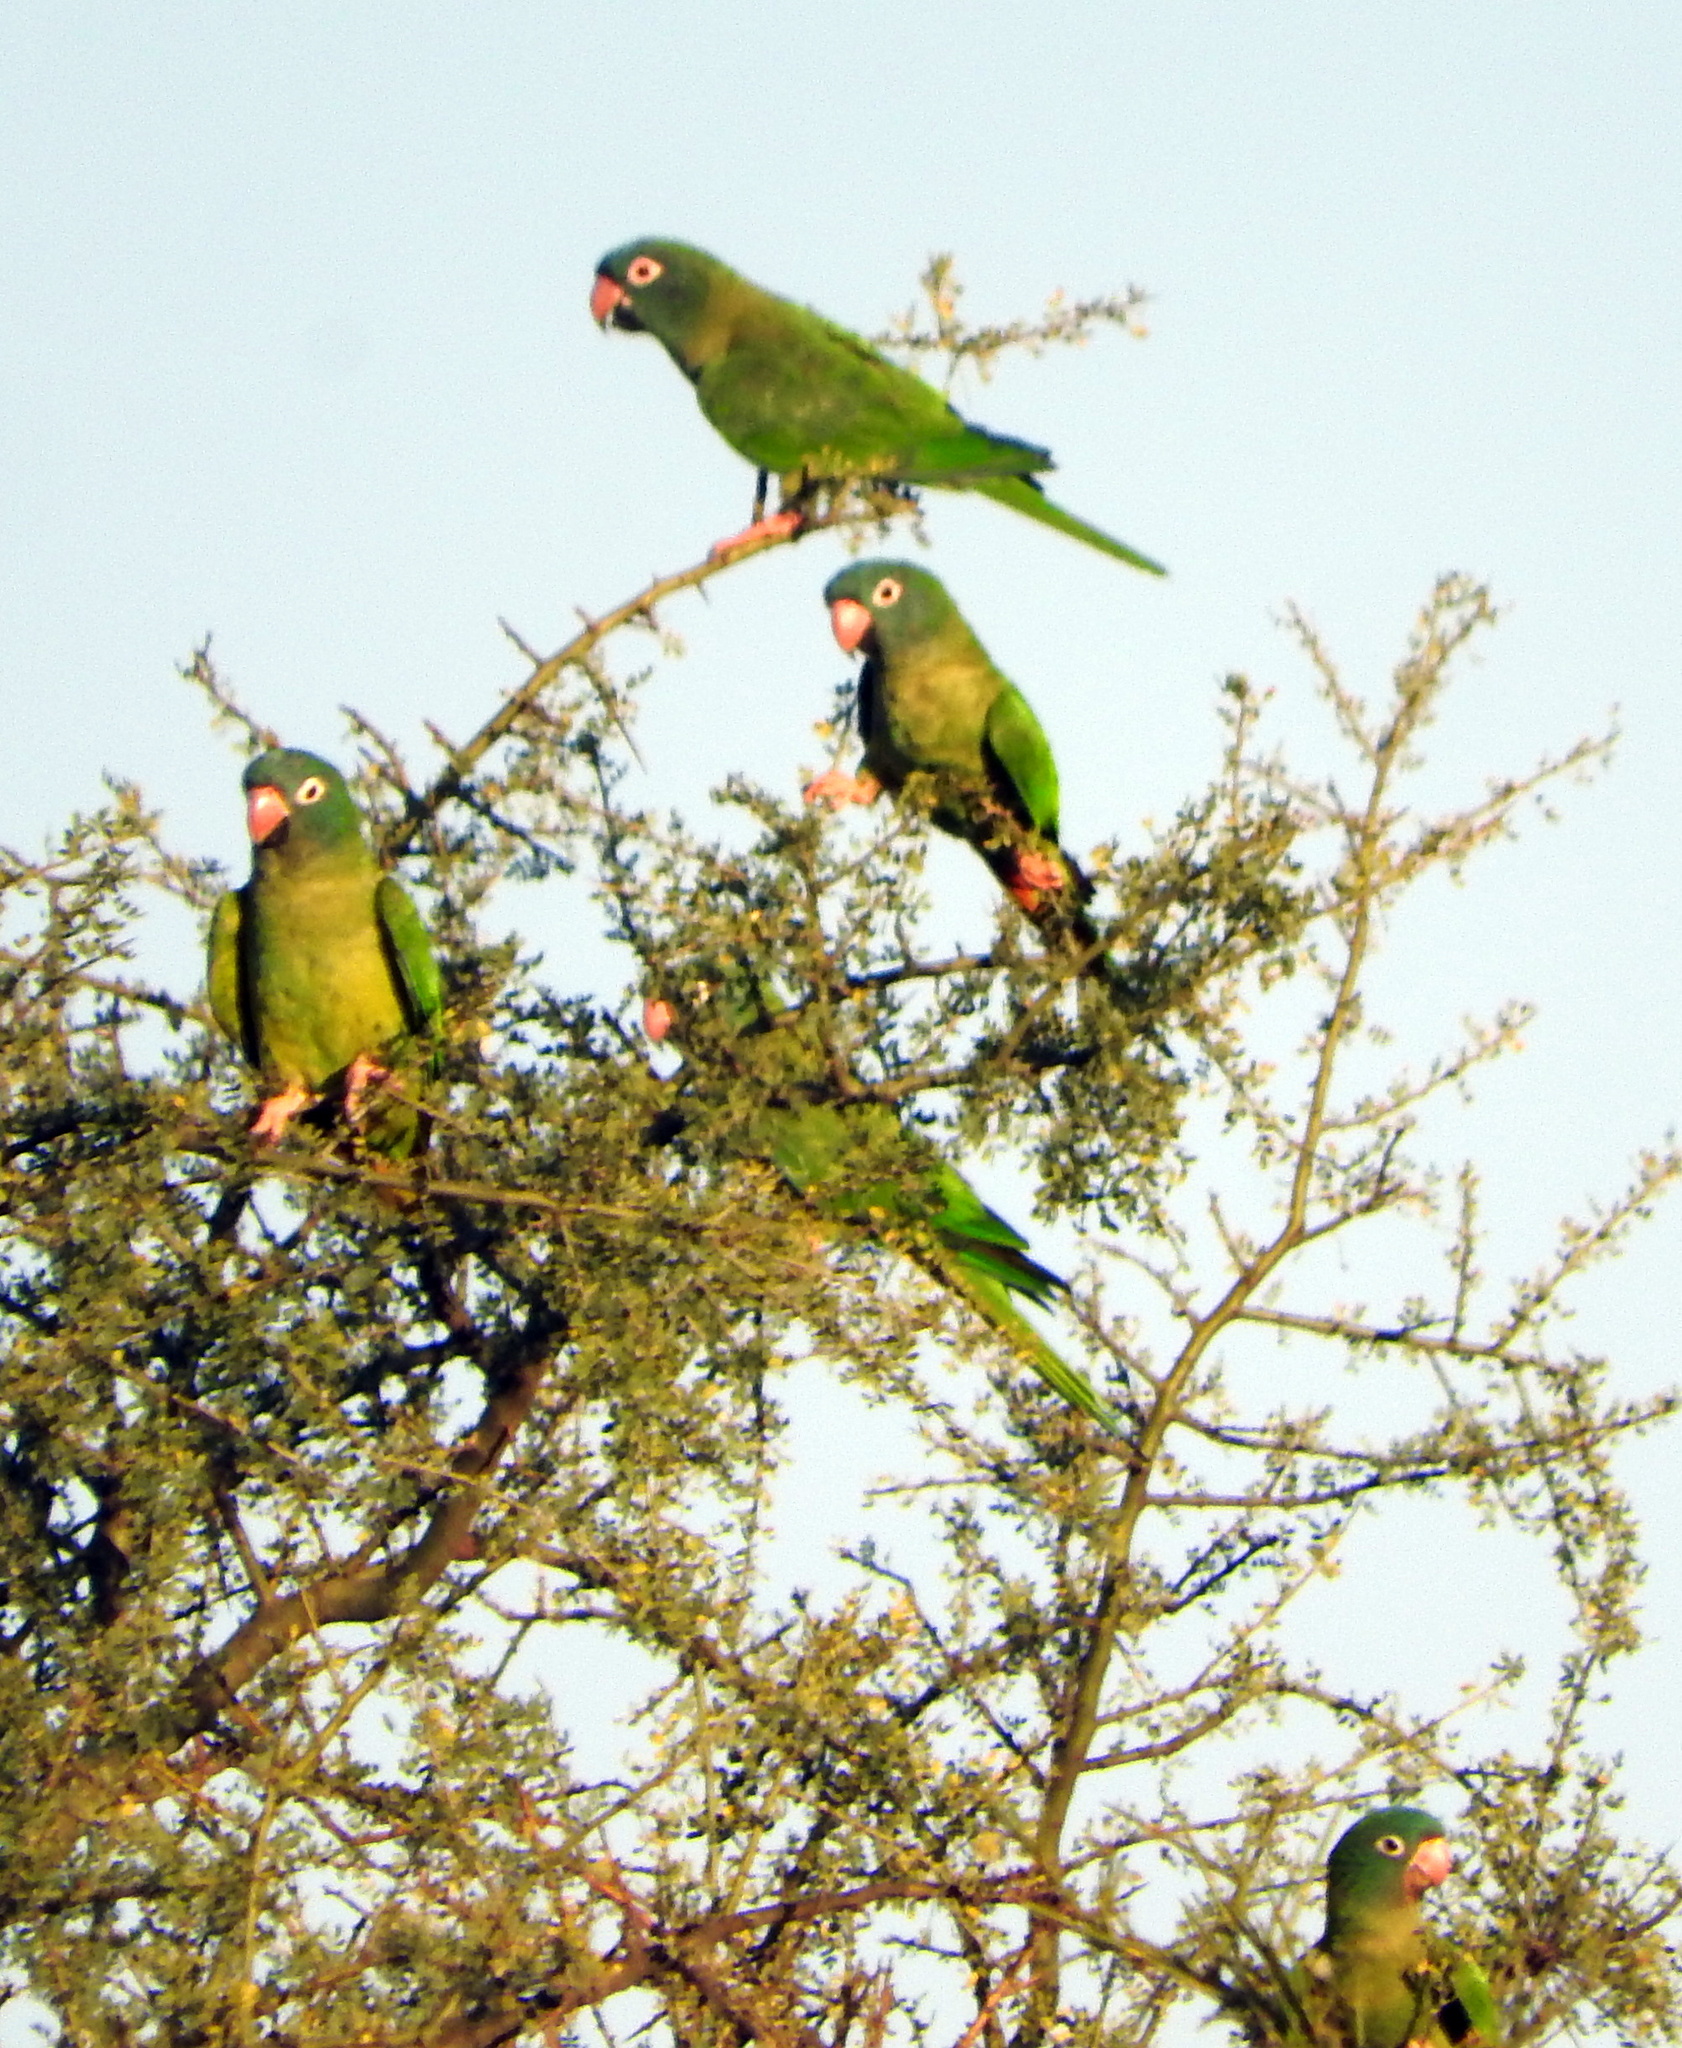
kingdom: Animalia
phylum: Chordata
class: Aves
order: Psittaciformes
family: Psittacidae
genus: Aratinga
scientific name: Aratinga acuticaudata
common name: Blue-crowned parakeet
